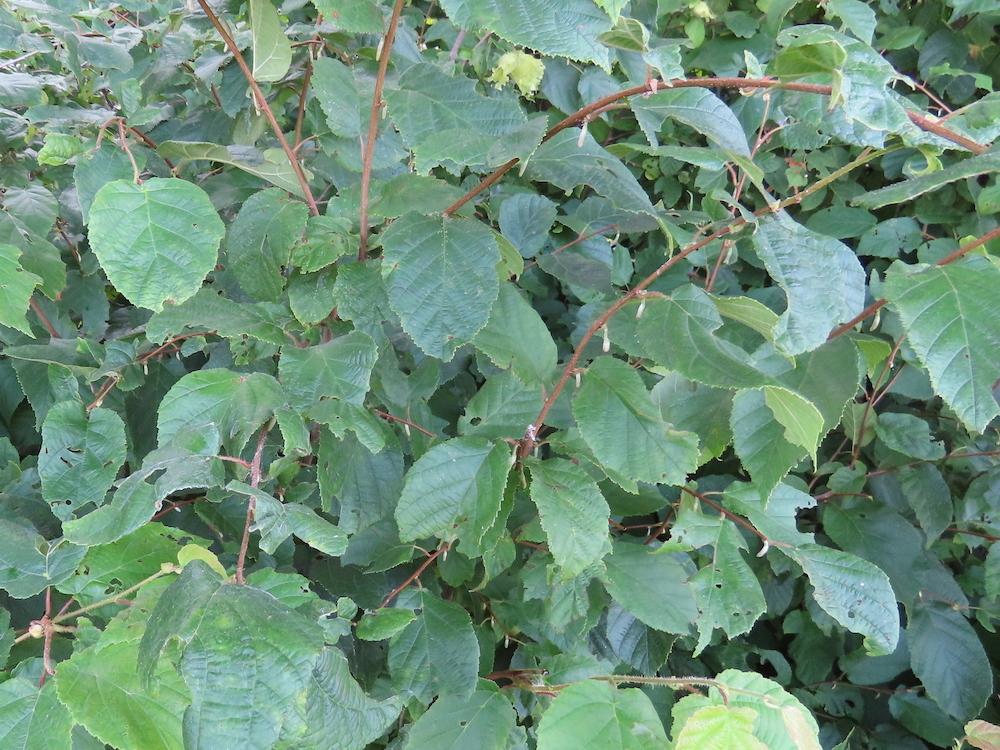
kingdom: Plantae
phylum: Tracheophyta
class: Magnoliopsida
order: Fagales
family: Betulaceae
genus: Corylus
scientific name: Corylus americana
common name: American hazel
